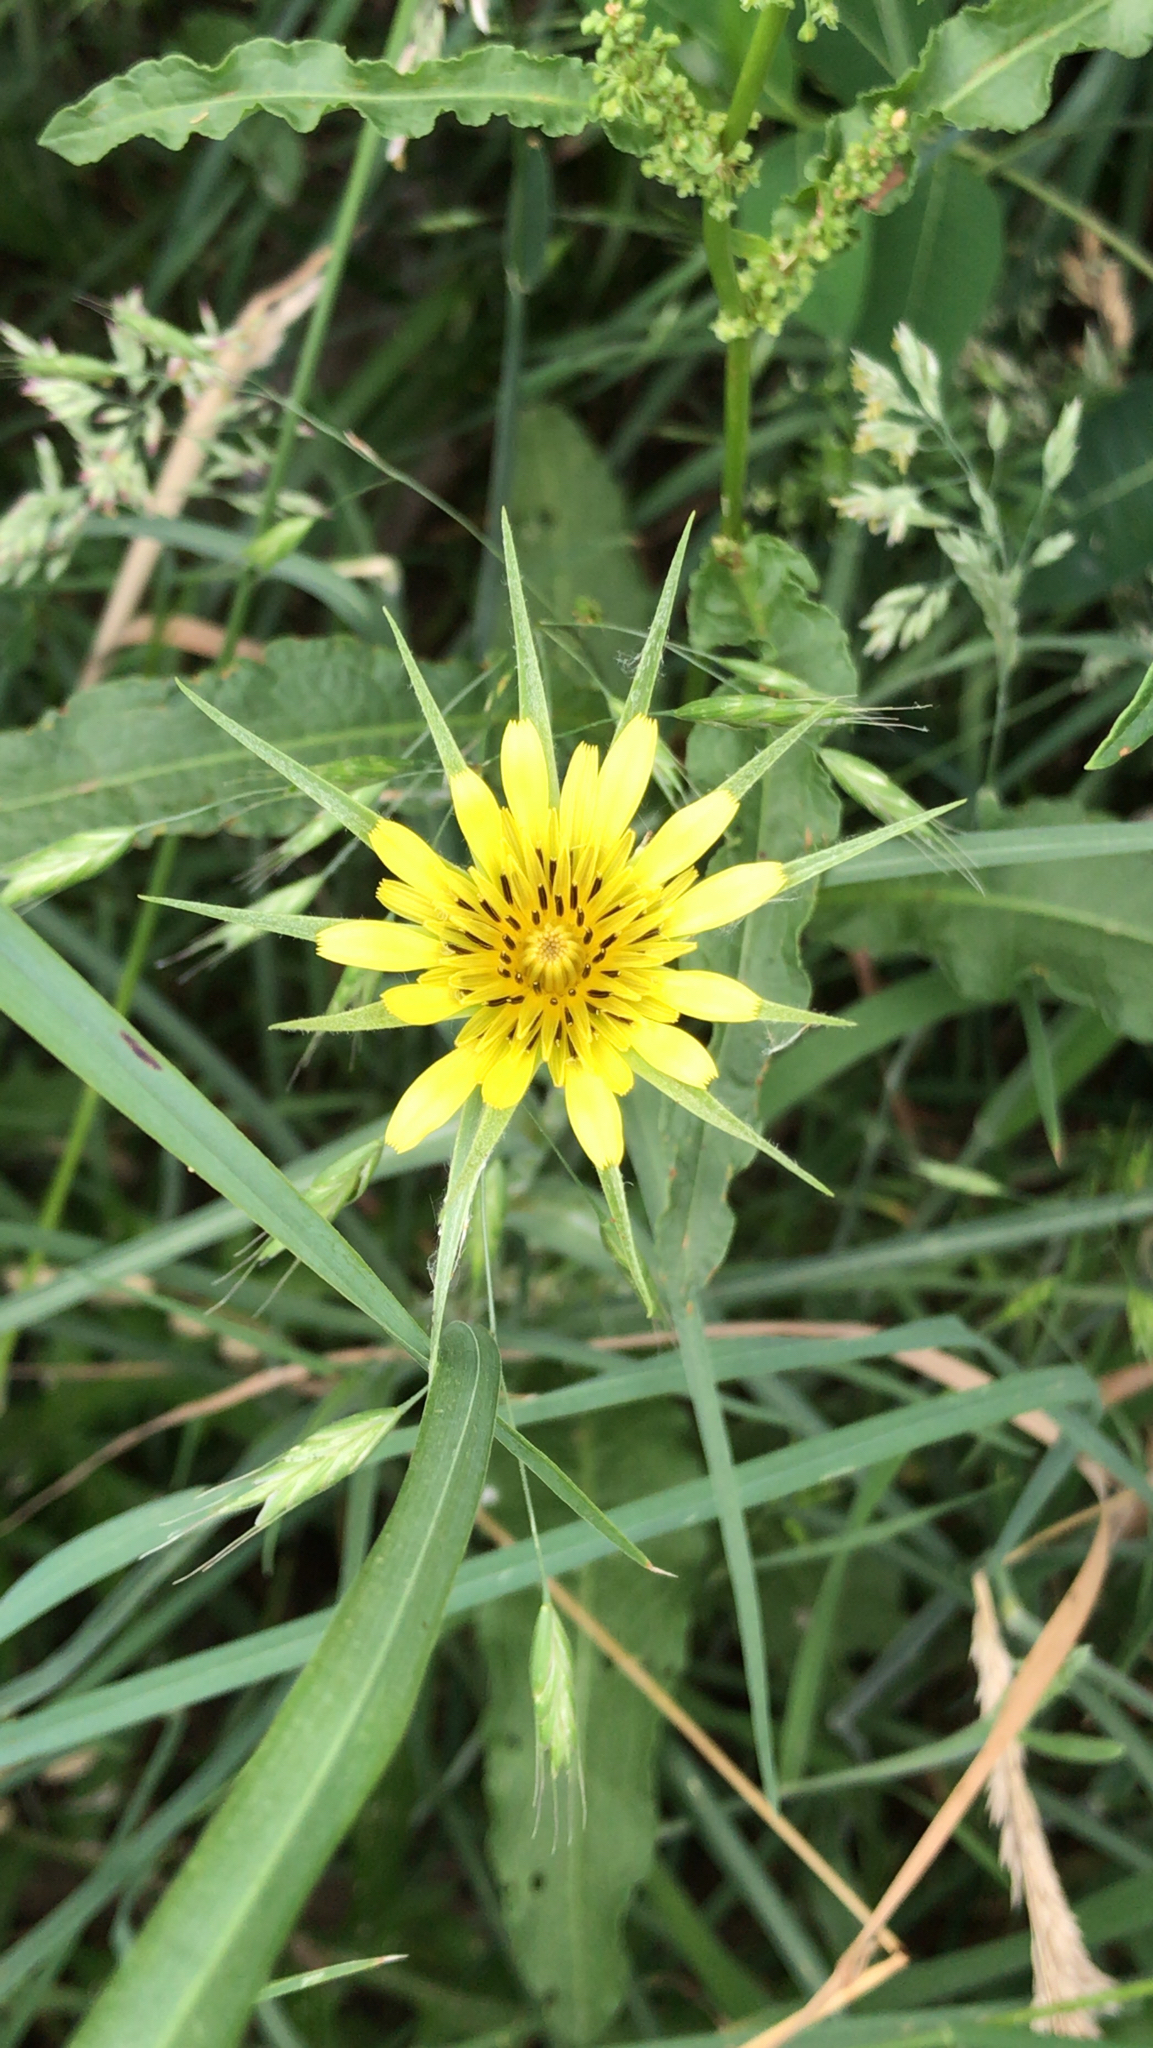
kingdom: Plantae
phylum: Tracheophyta
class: Magnoliopsida
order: Asterales
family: Asteraceae
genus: Tragopogon
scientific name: Tragopogon dubius
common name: Yellow salsify
